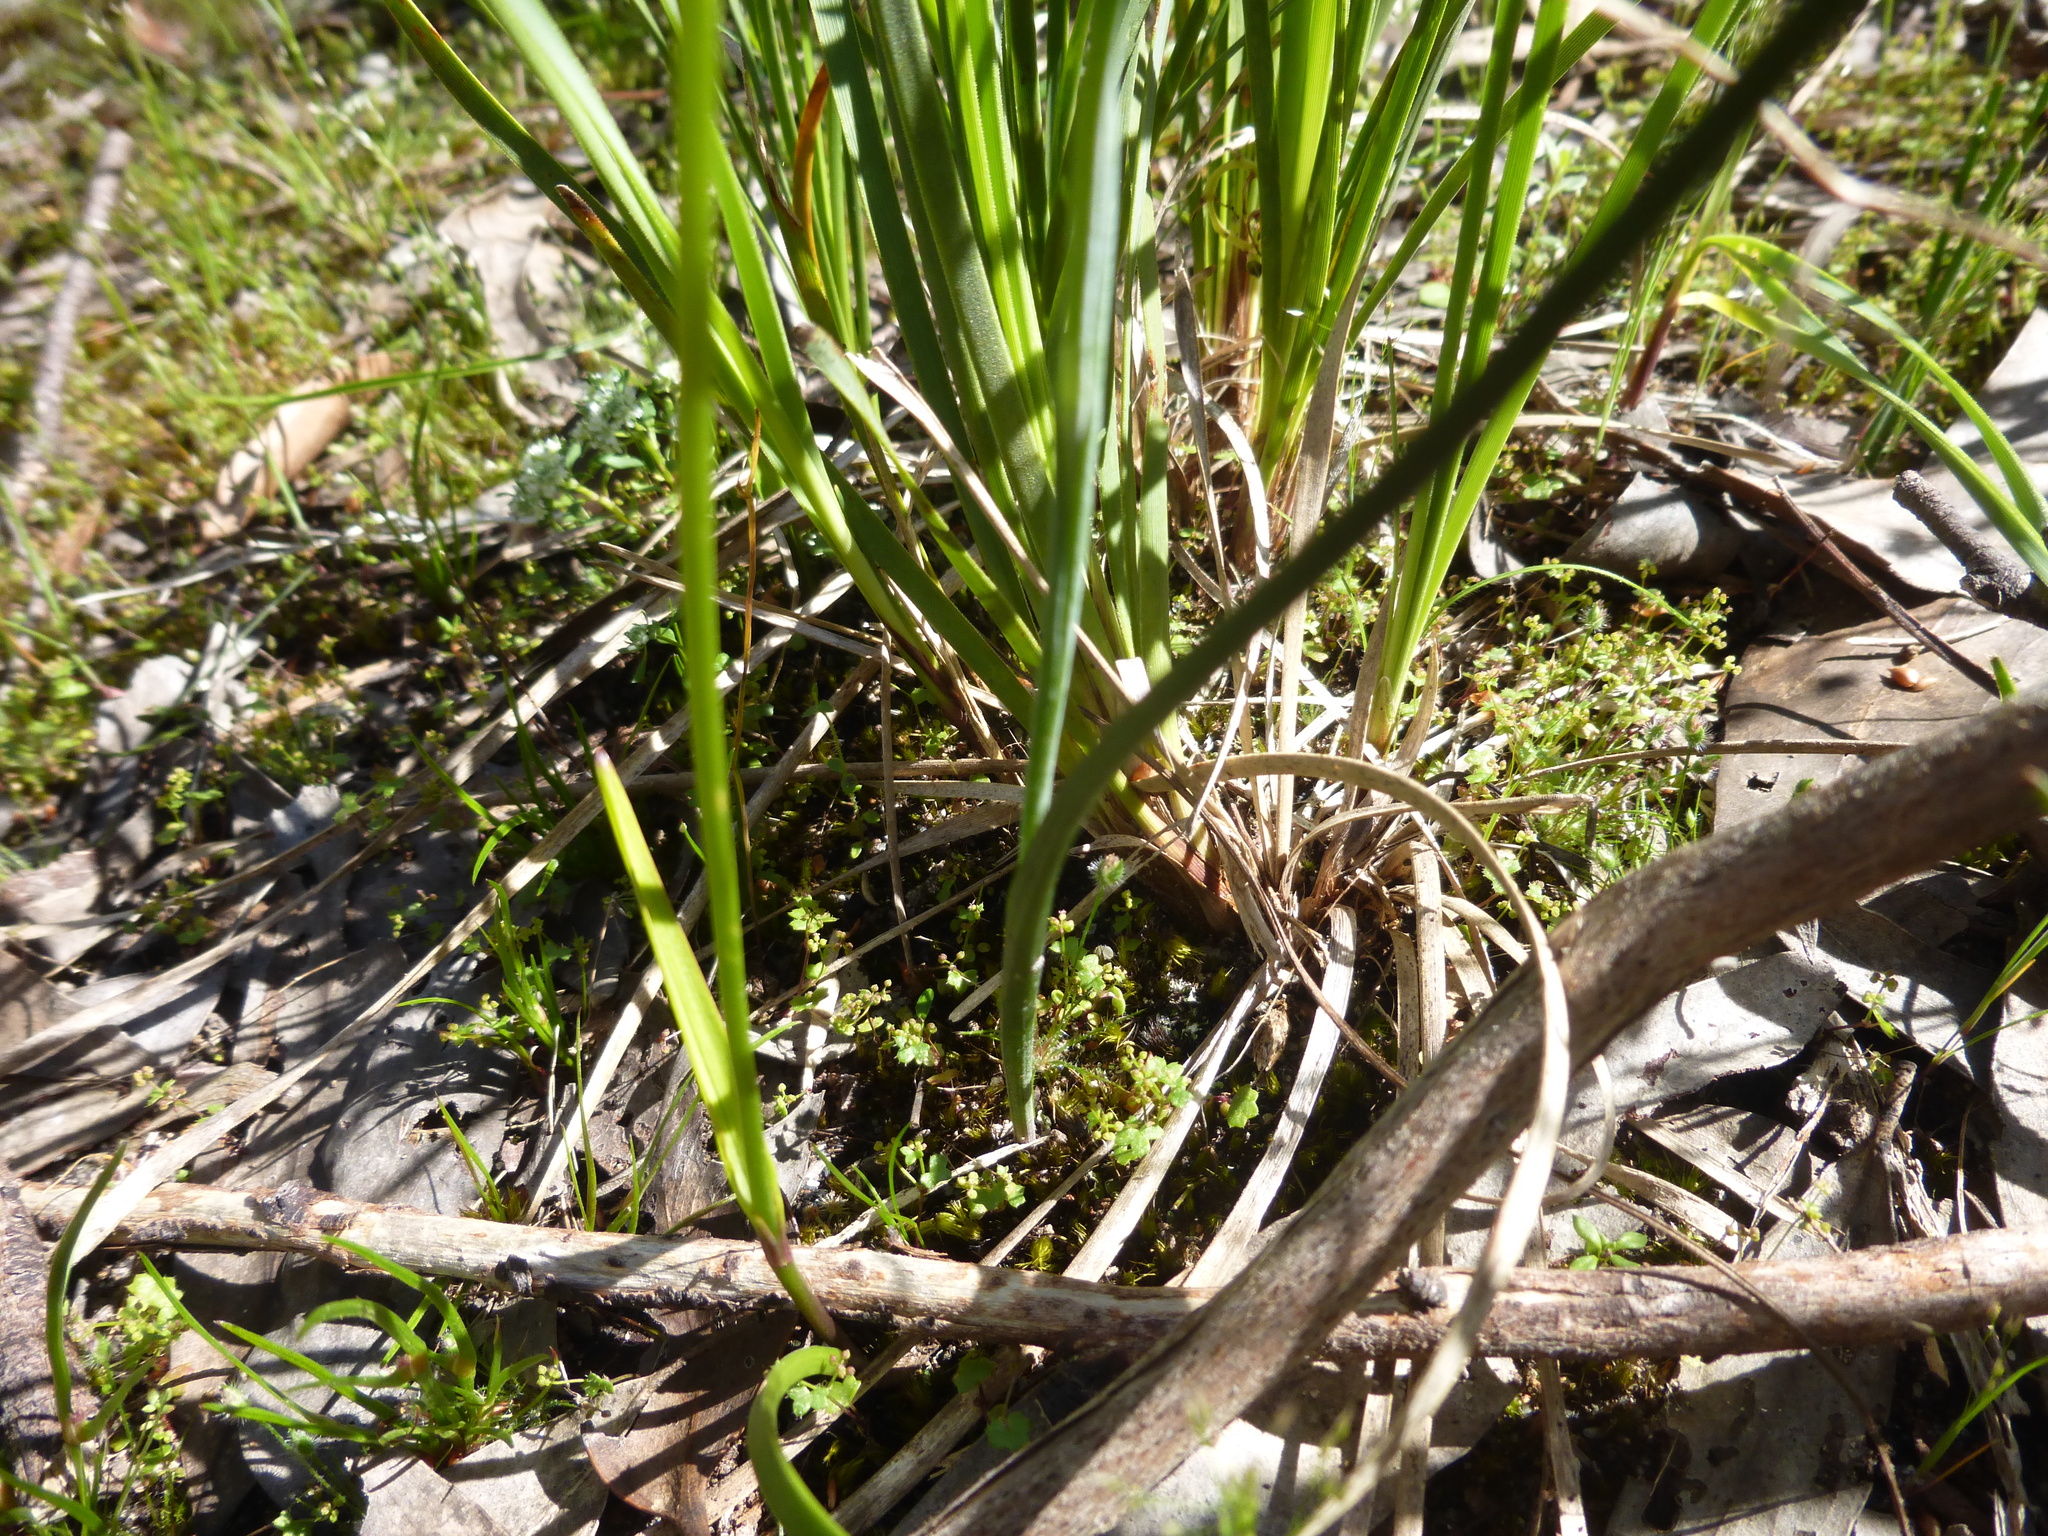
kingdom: Plantae
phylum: Tracheophyta
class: Liliopsida
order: Asparagales
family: Orchidaceae
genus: Thelymitra
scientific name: Thelymitra antennifera
